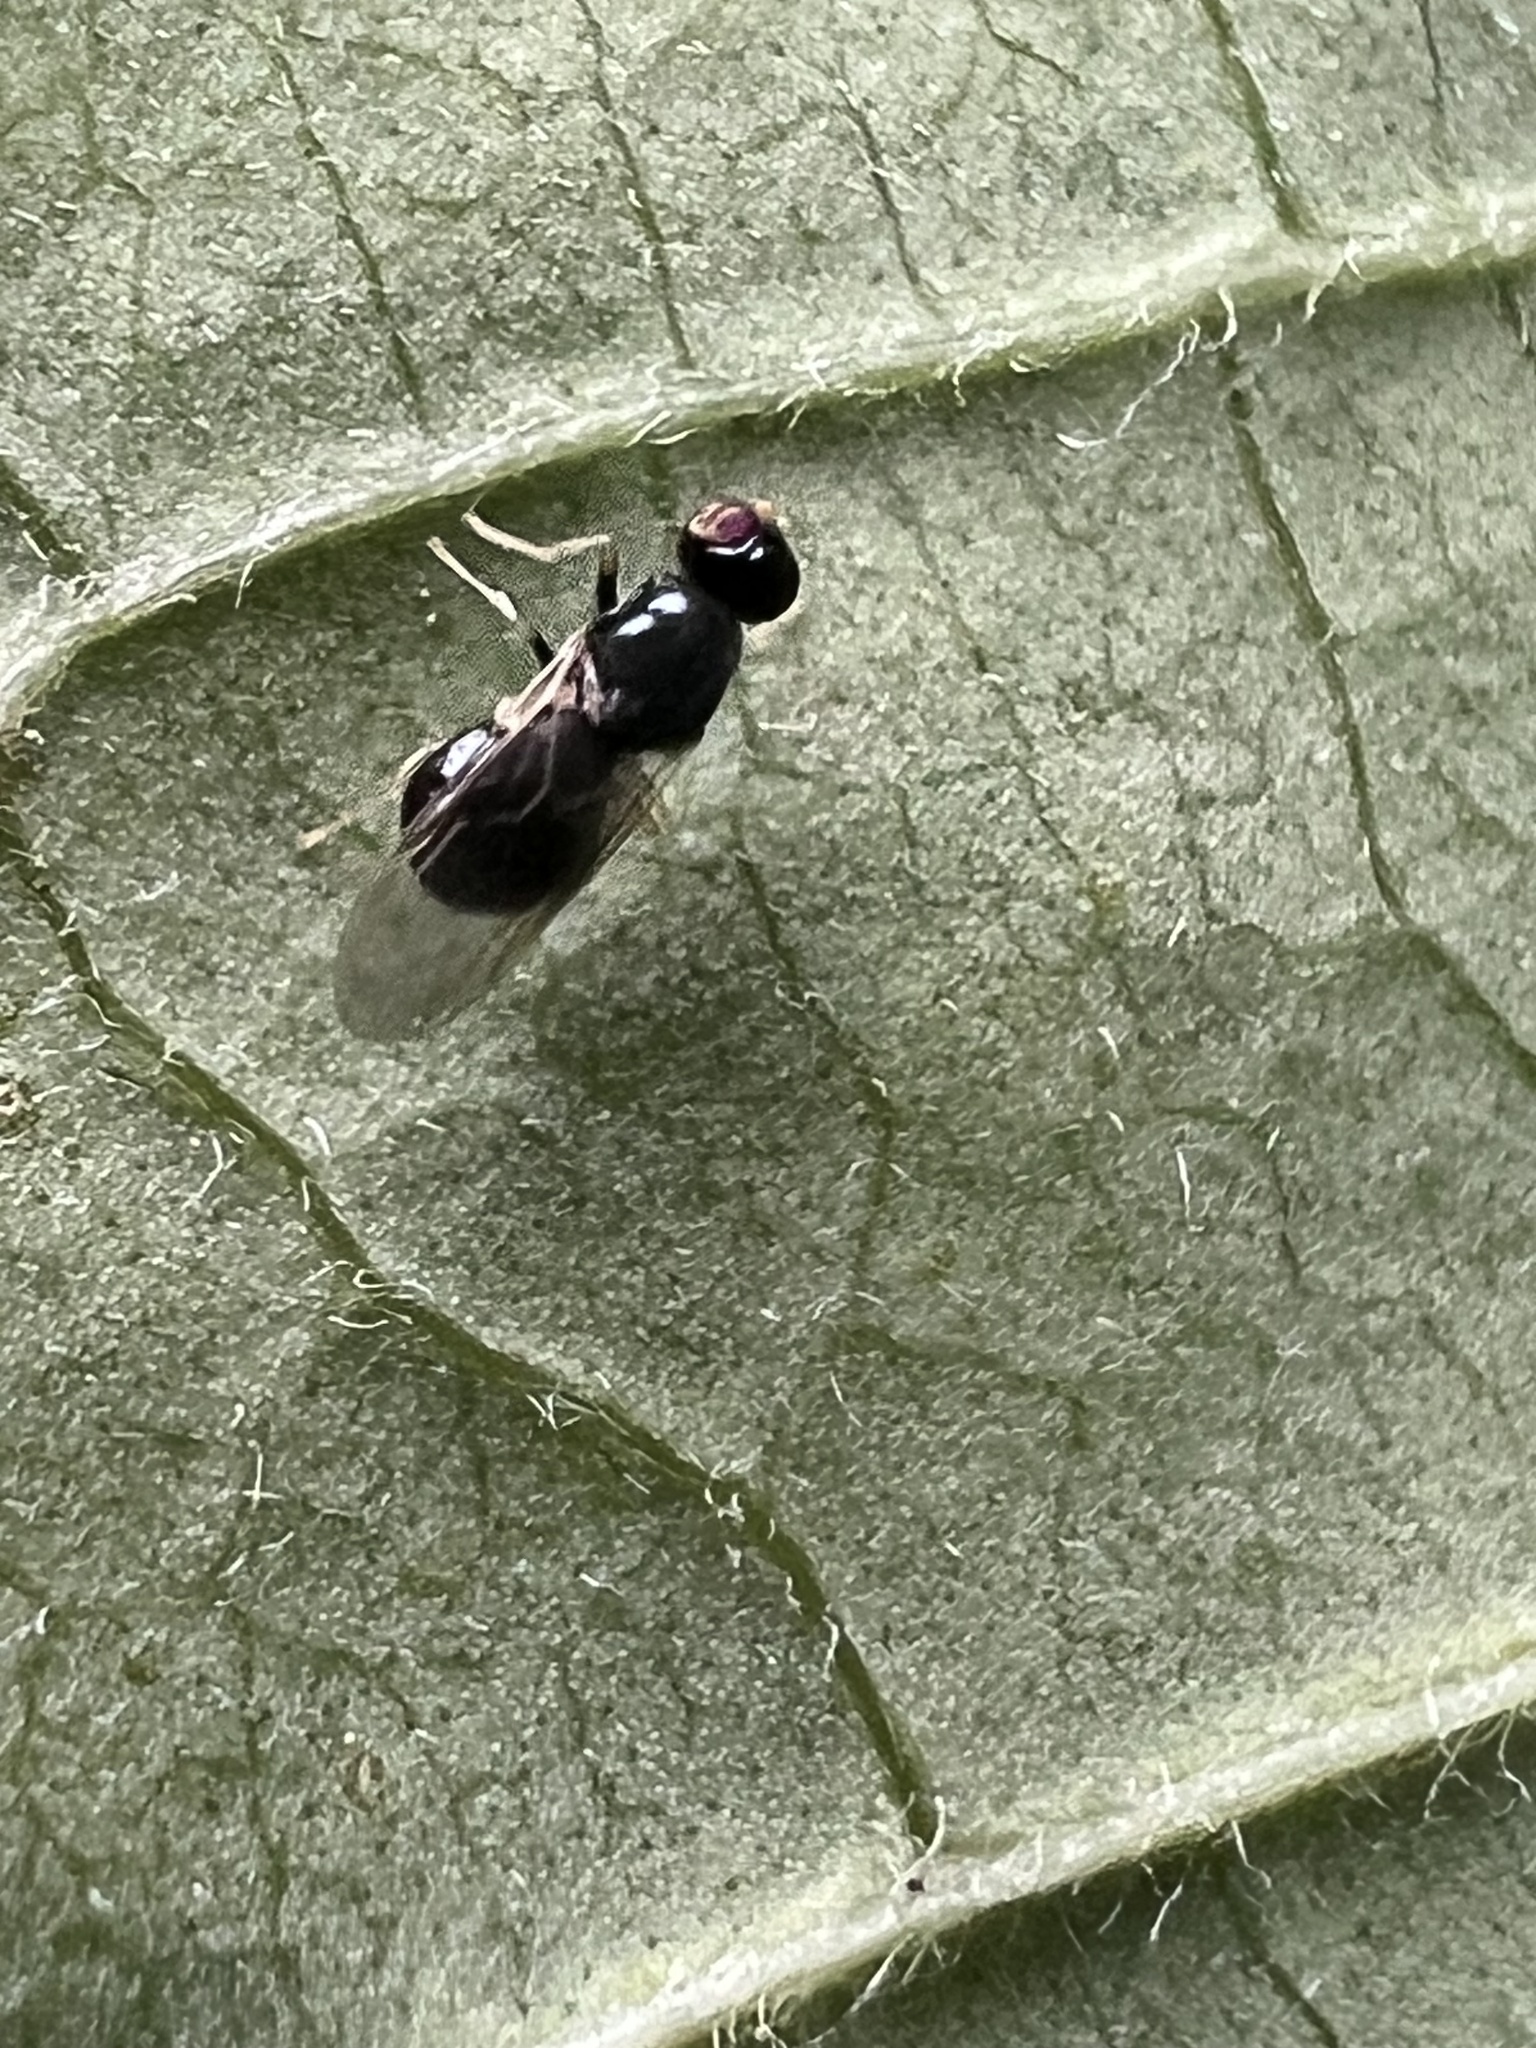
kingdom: Animalia
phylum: Arthropoda
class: Insecta
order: Diptera
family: Stratiomyidae
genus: Pachygaster
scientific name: Pachygaster pulchra
